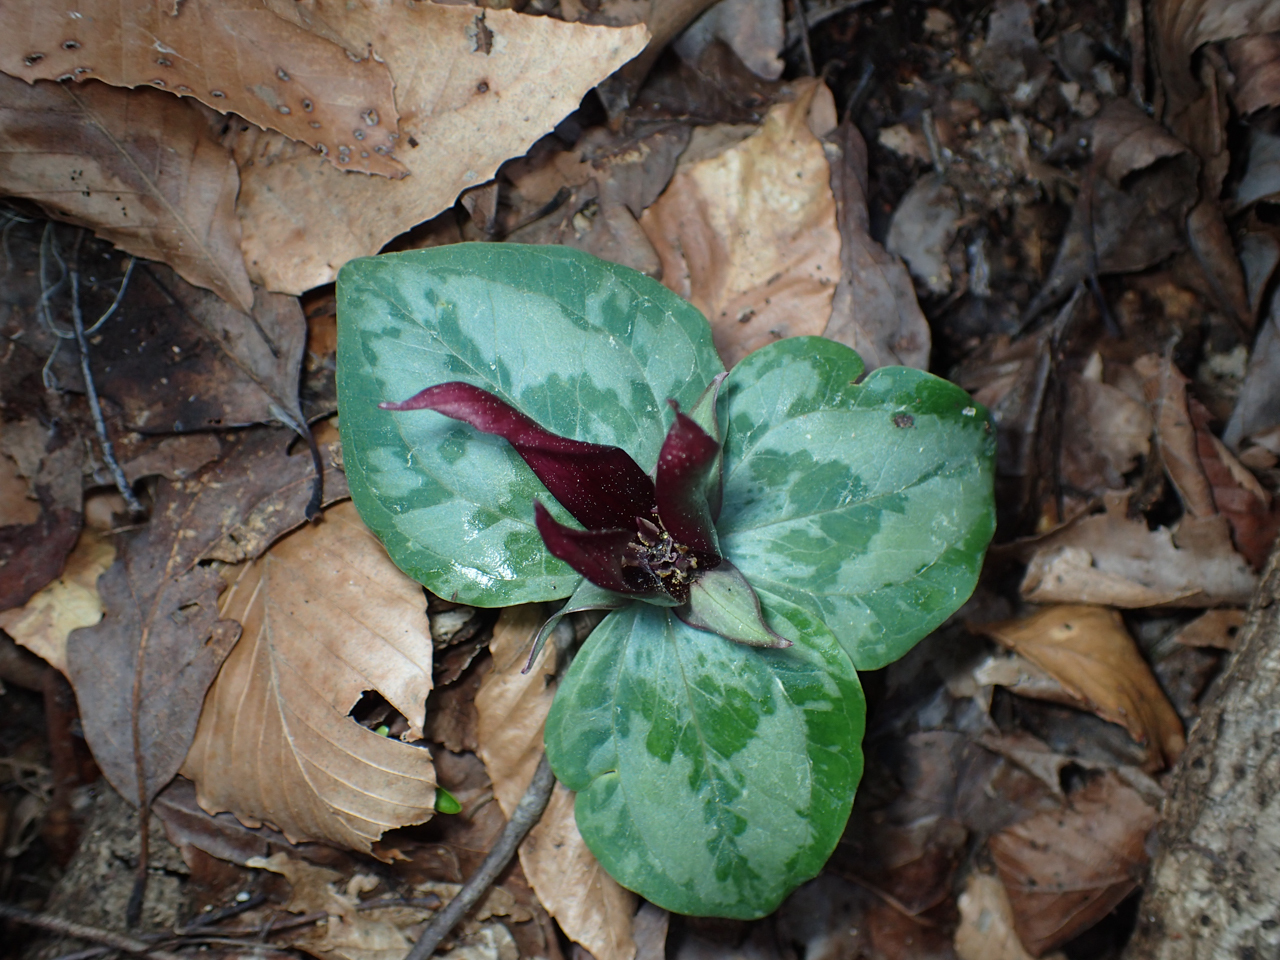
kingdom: Plantae
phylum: Tracheophyta
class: Liliopsida
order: Liliales
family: Melanthiaceae
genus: Trillium
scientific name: Trillium decumbens
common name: Decumbent trillium
